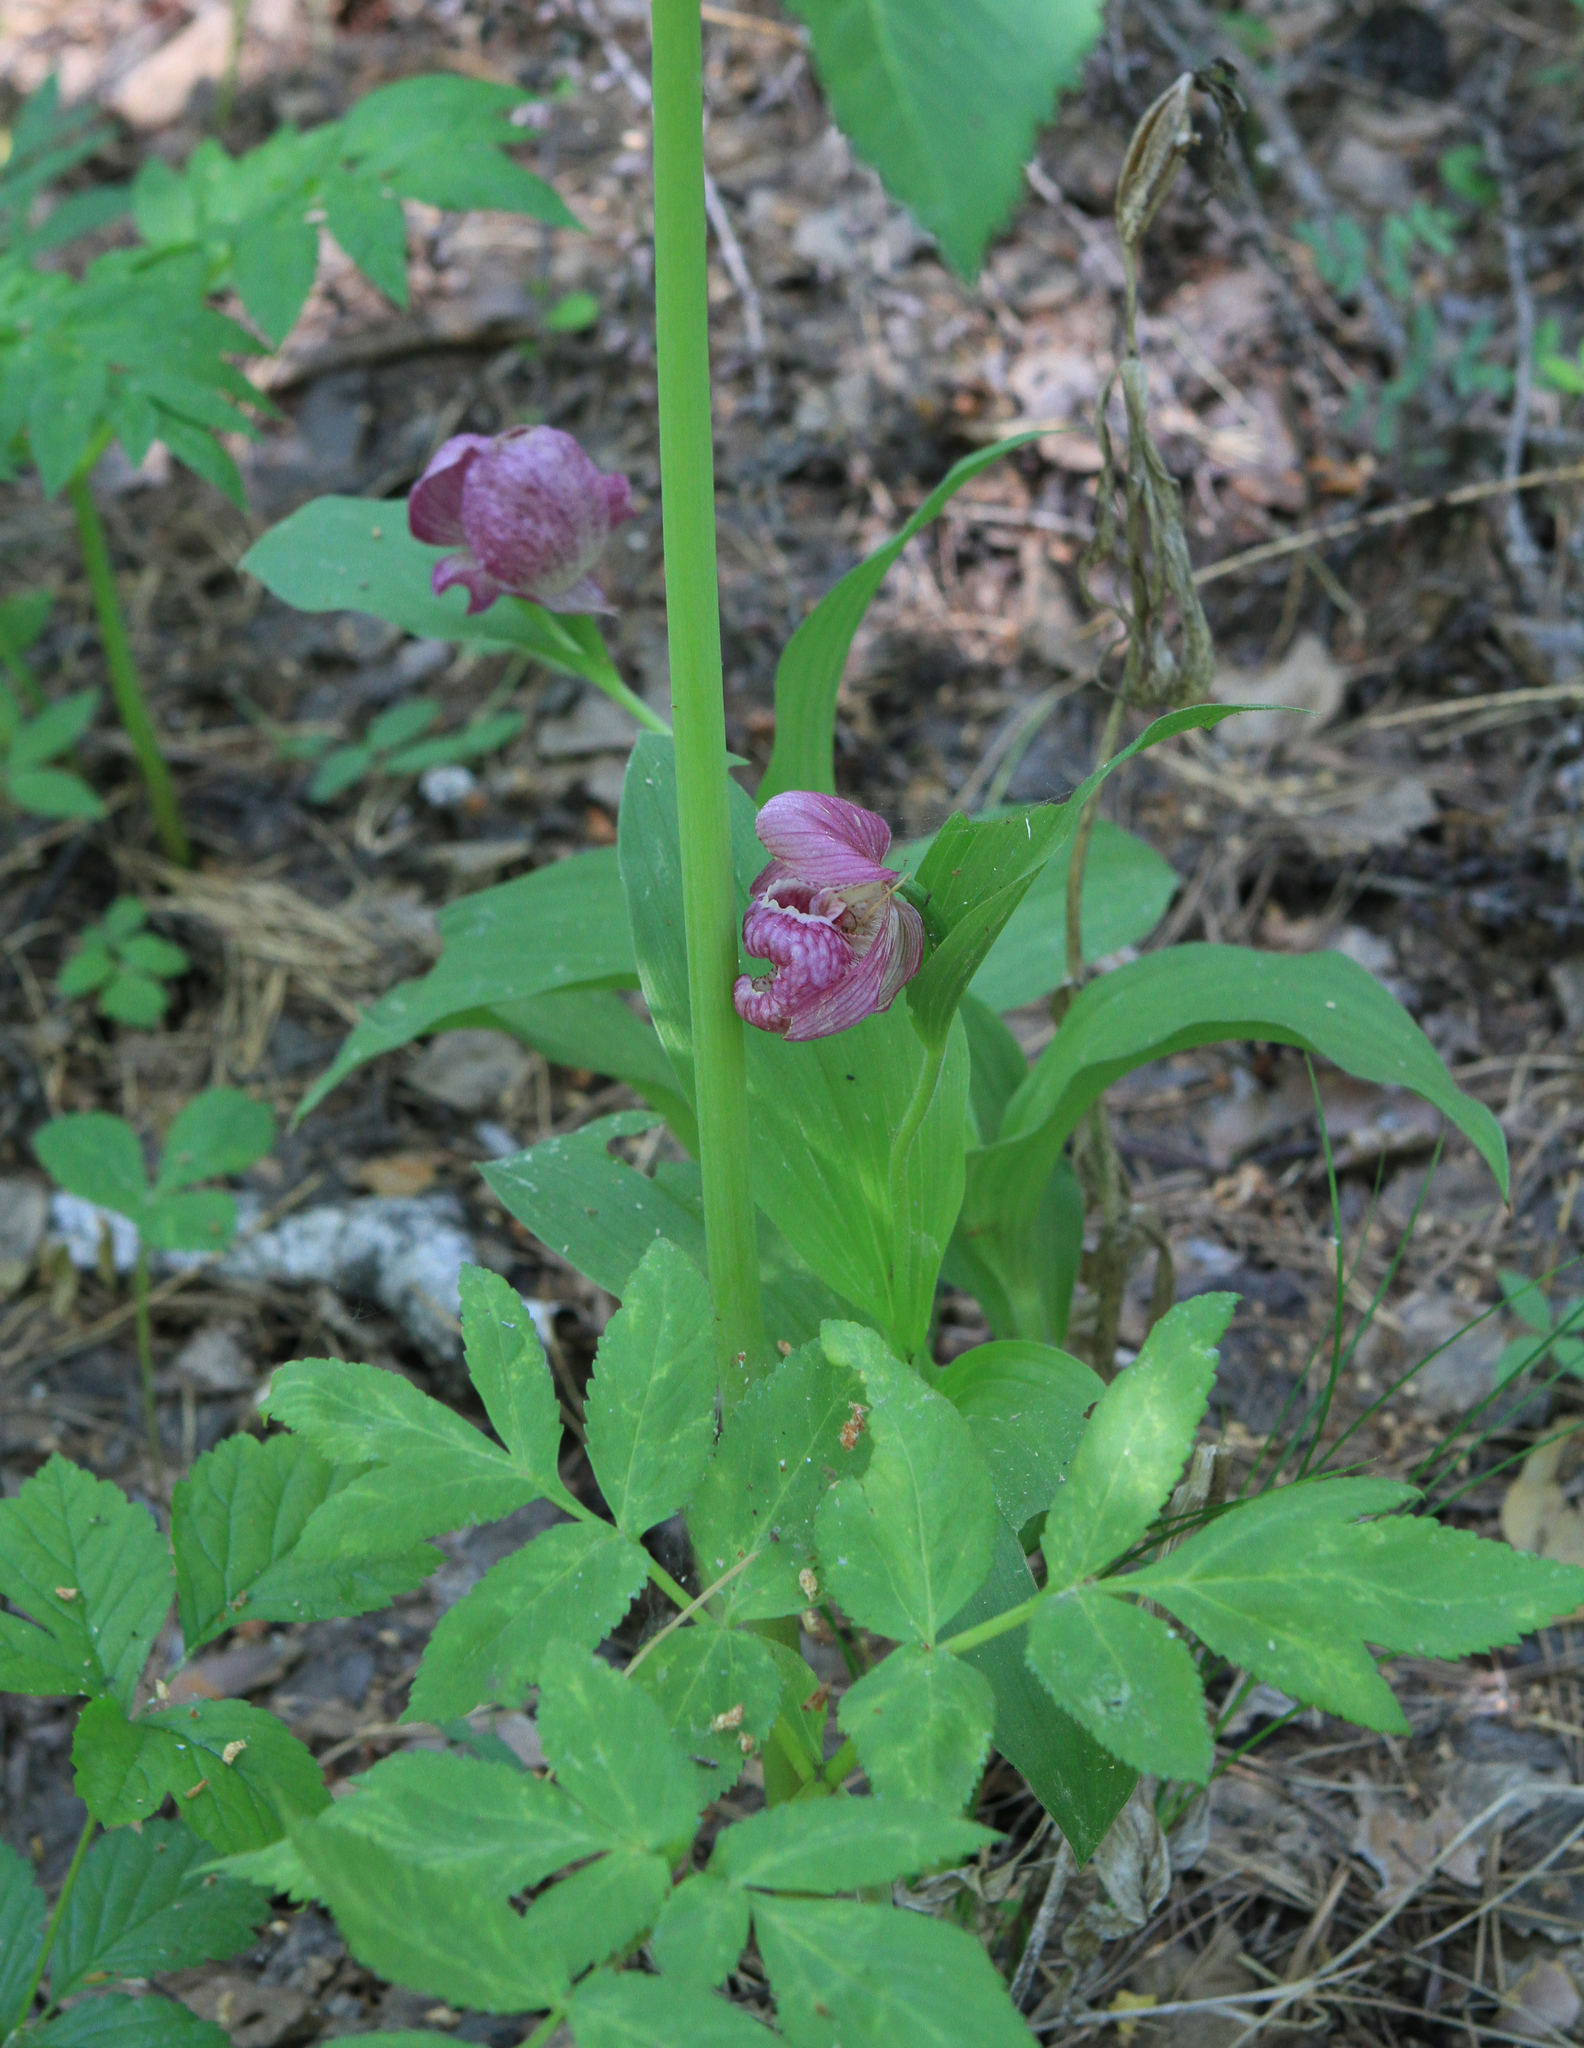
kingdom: Plantae
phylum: Tracheophyta
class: Liliopsida
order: Asparagales
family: Orchidaceae
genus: Cypripedium
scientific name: Cypripedium macranthos
